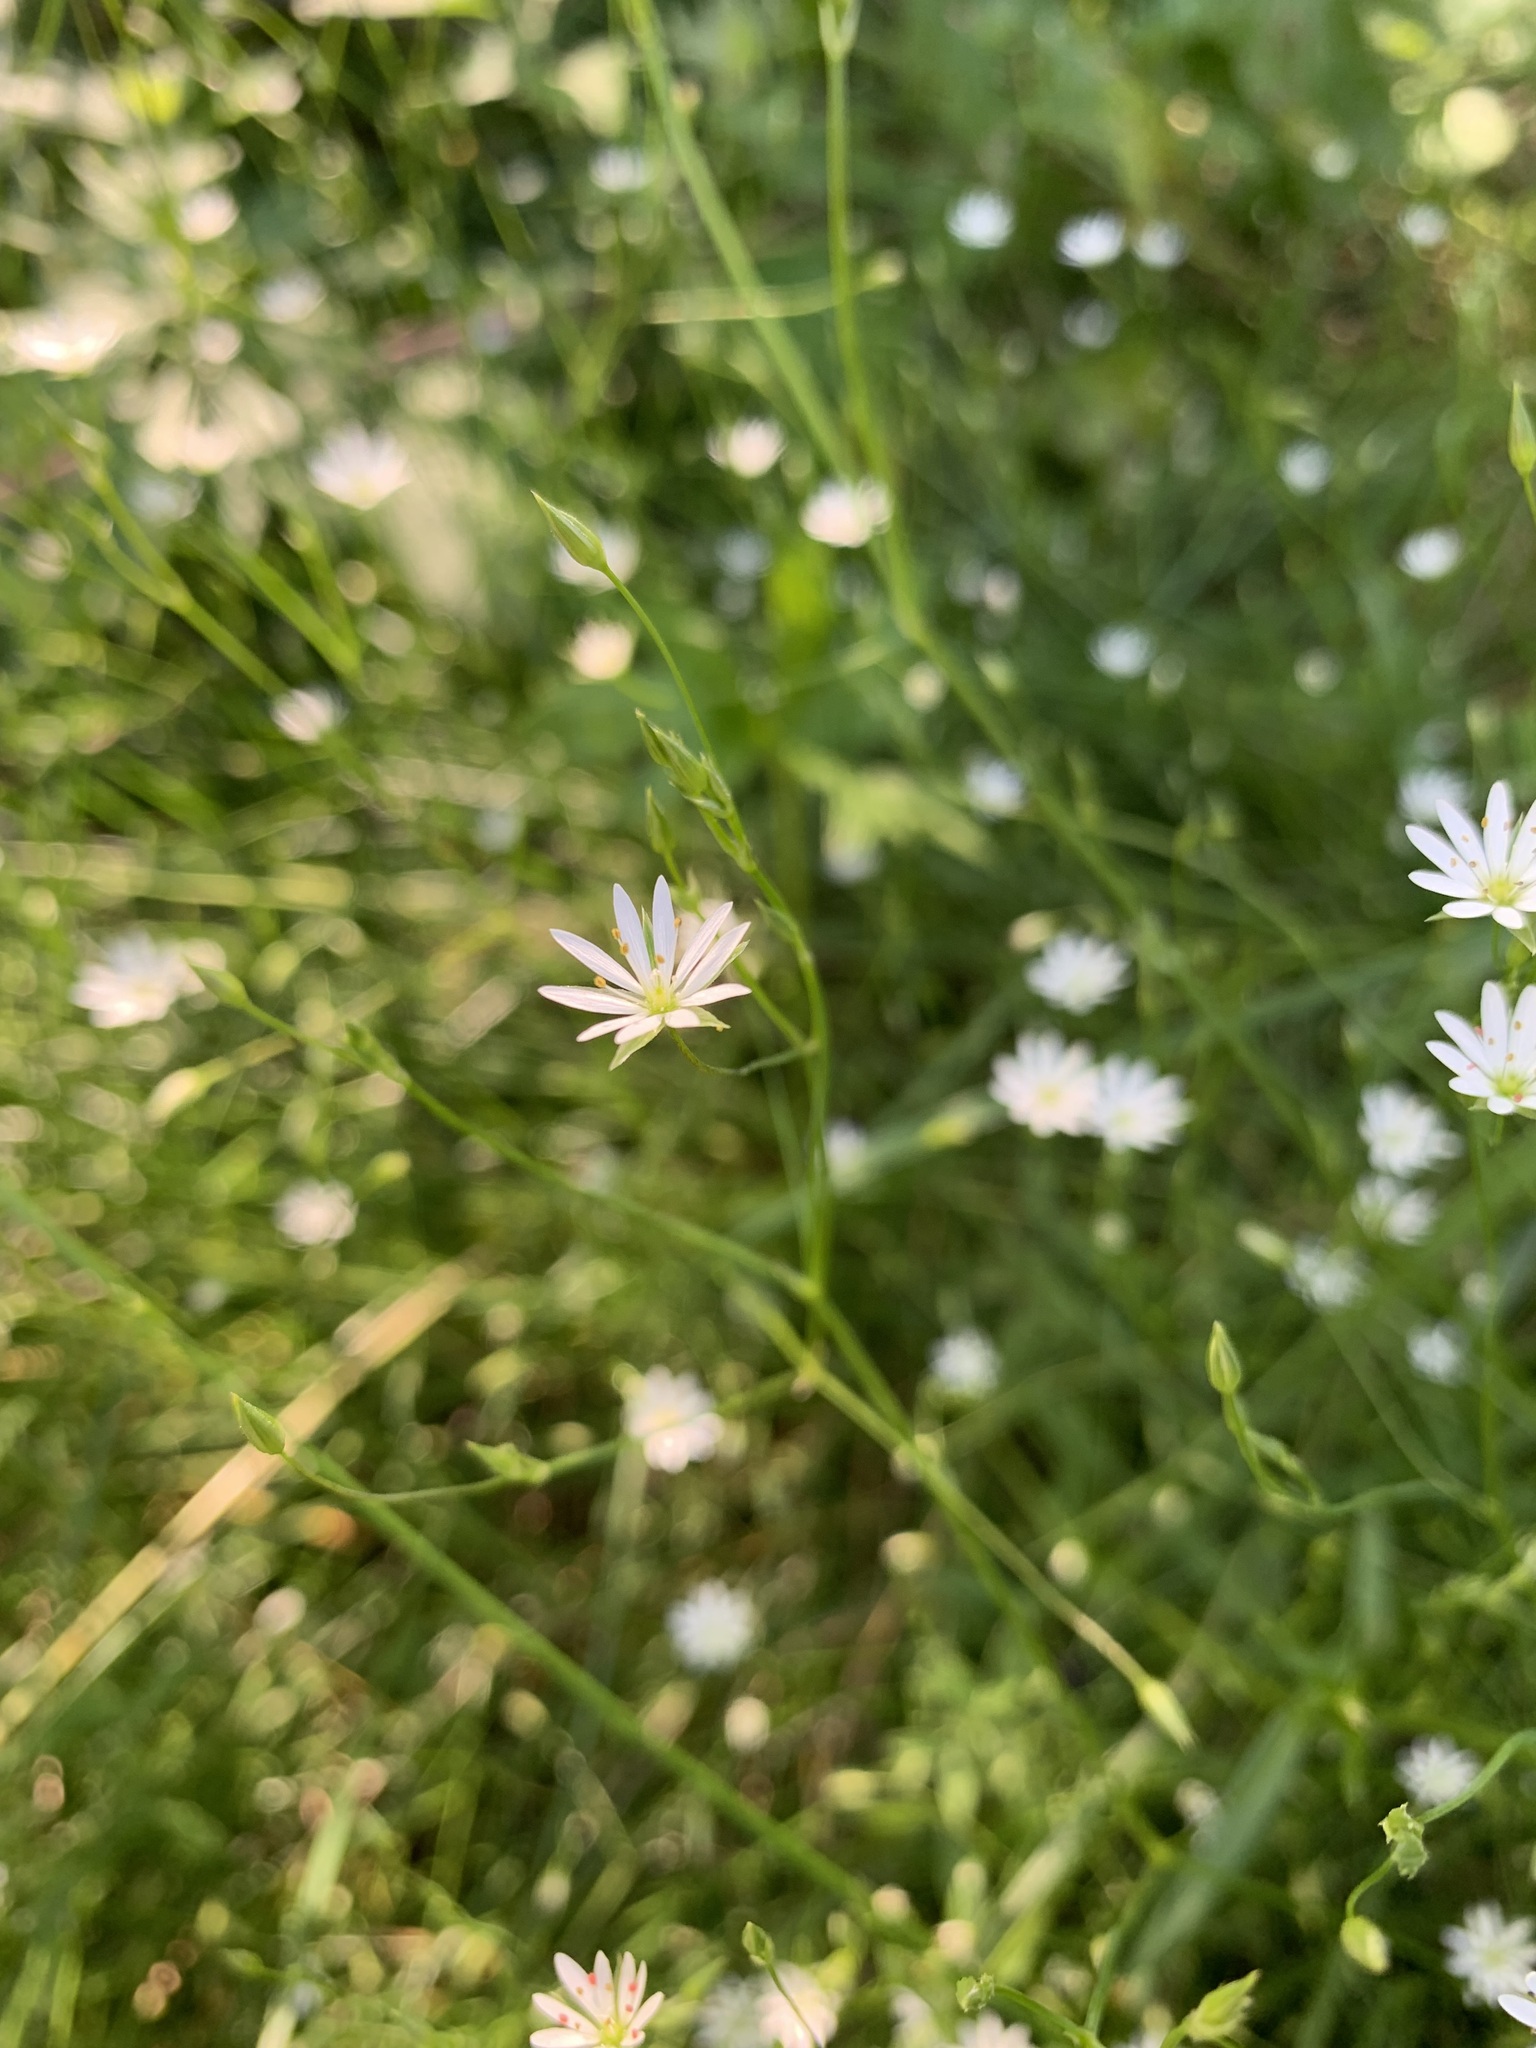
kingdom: Plantae
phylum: Tracheophyta
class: Magnoliopsida
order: Caryophyllales
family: Caryophyllaceae
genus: Stellaria
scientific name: Stellaria graminea
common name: Grass-like starwort
